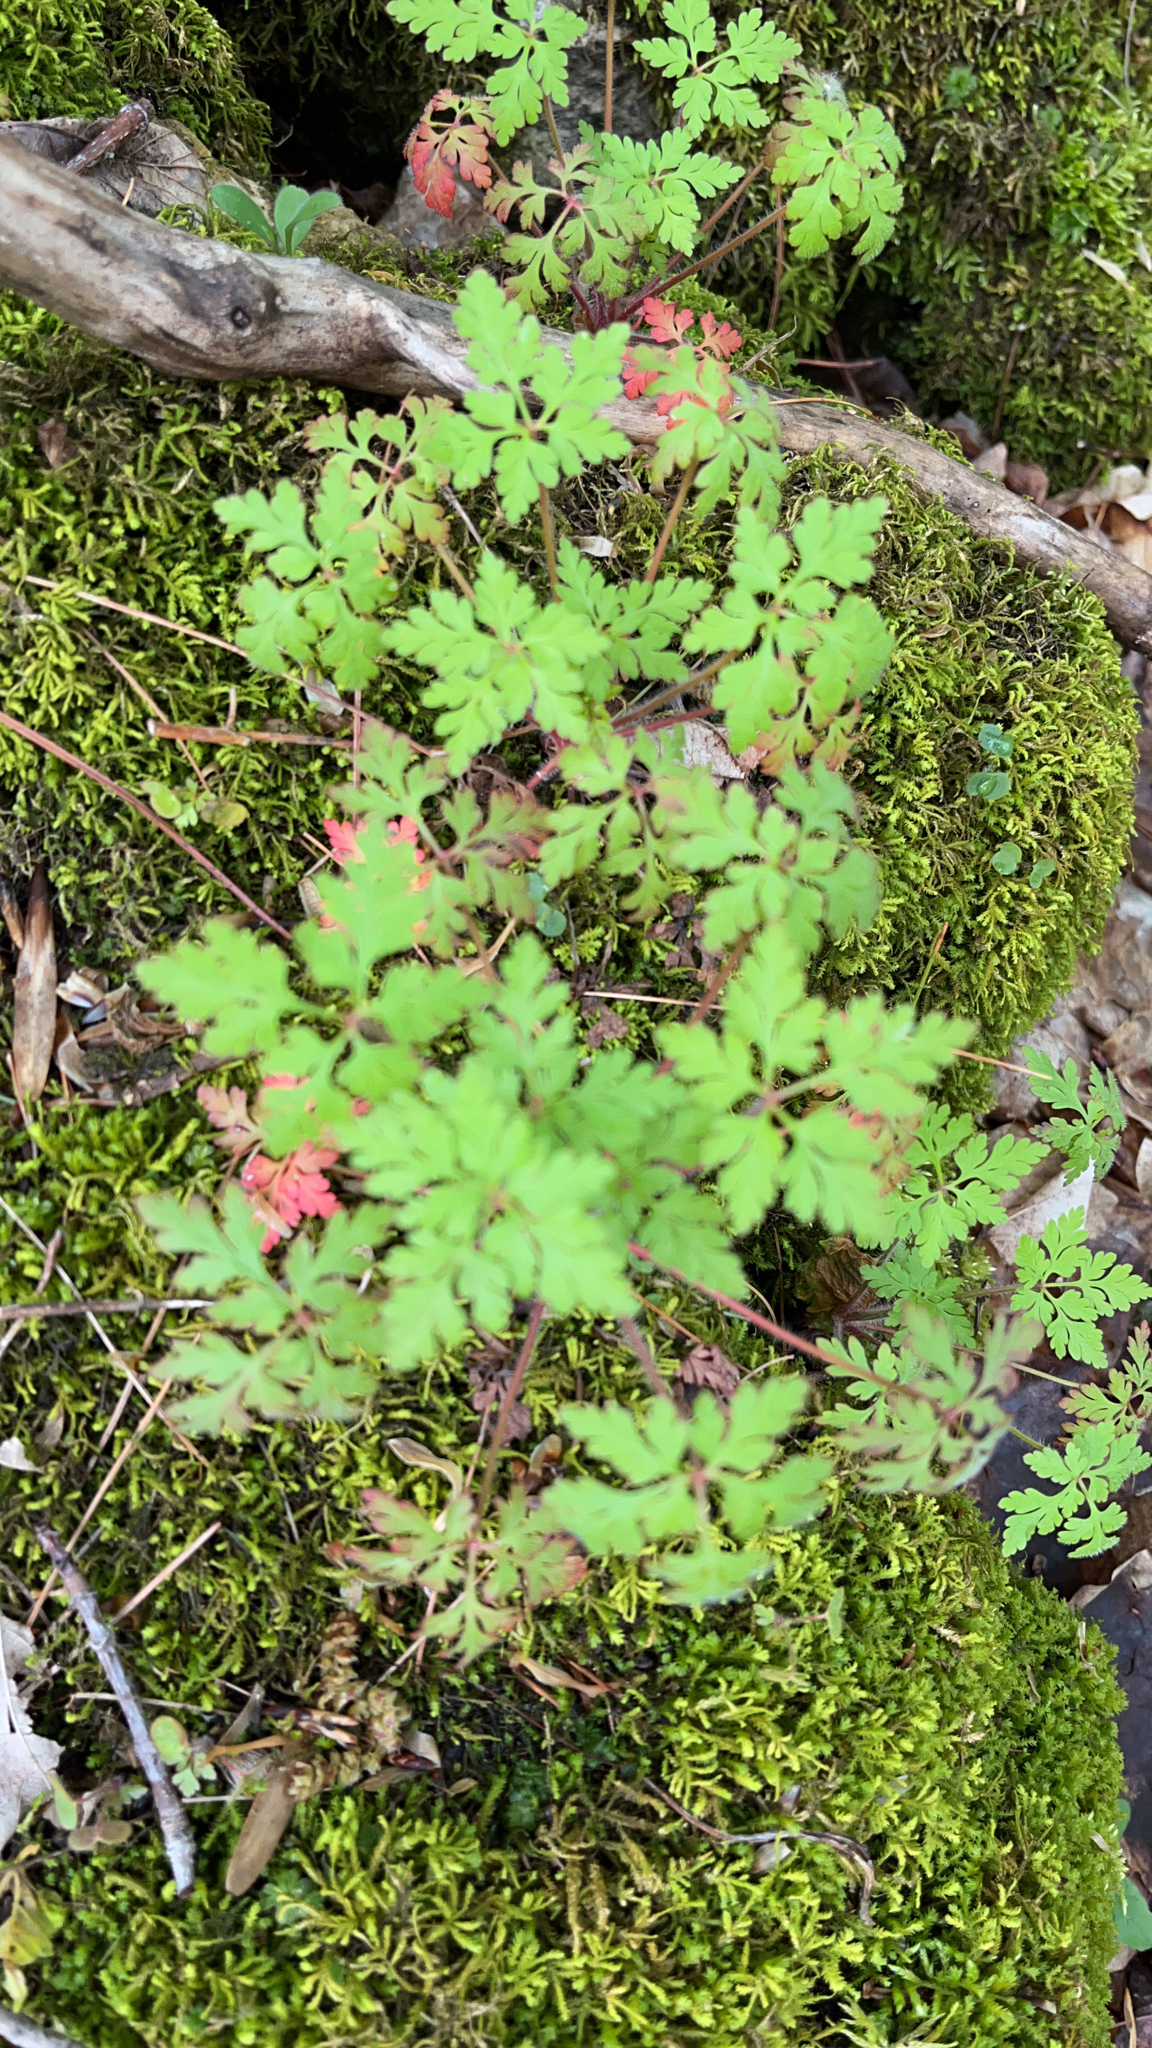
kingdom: Plantae
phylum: Tracheophyta
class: Magnoliopsida
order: Geraniales
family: Geraniaceae
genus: Geranium
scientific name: Geranium robertianum
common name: Herb-robert
